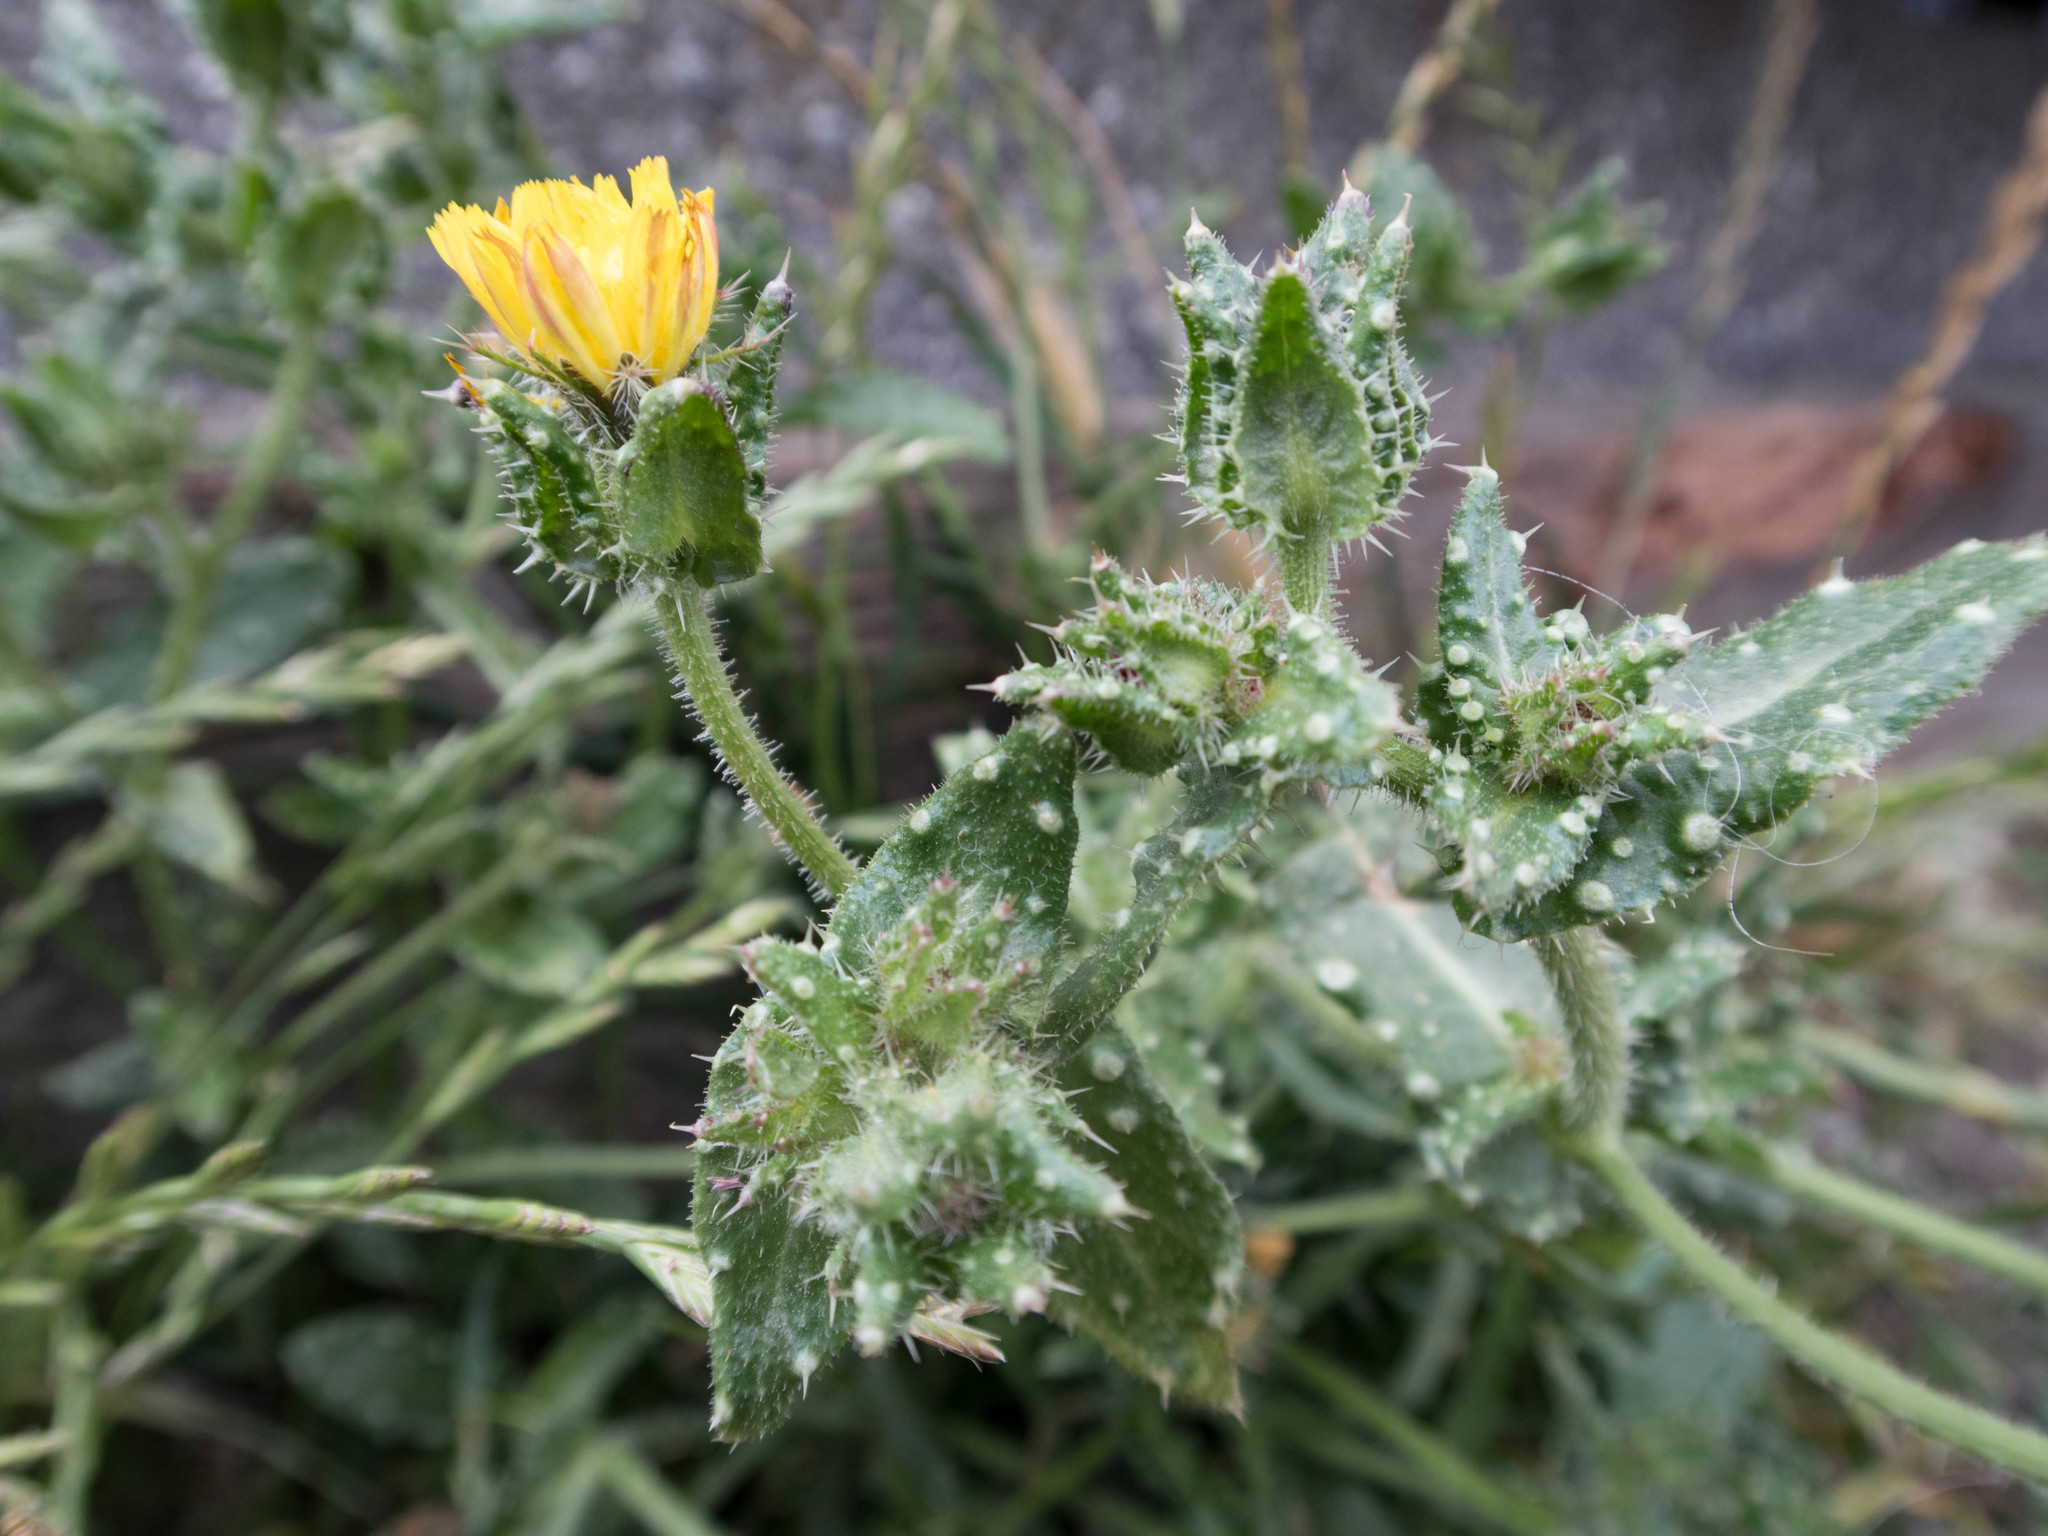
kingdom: Plantae
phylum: Tracheophyta
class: Magnoliopsida
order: Asterales
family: Asteraceae
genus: Helminthotheca
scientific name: Helminthotheca echioides
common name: Ox-tongue
